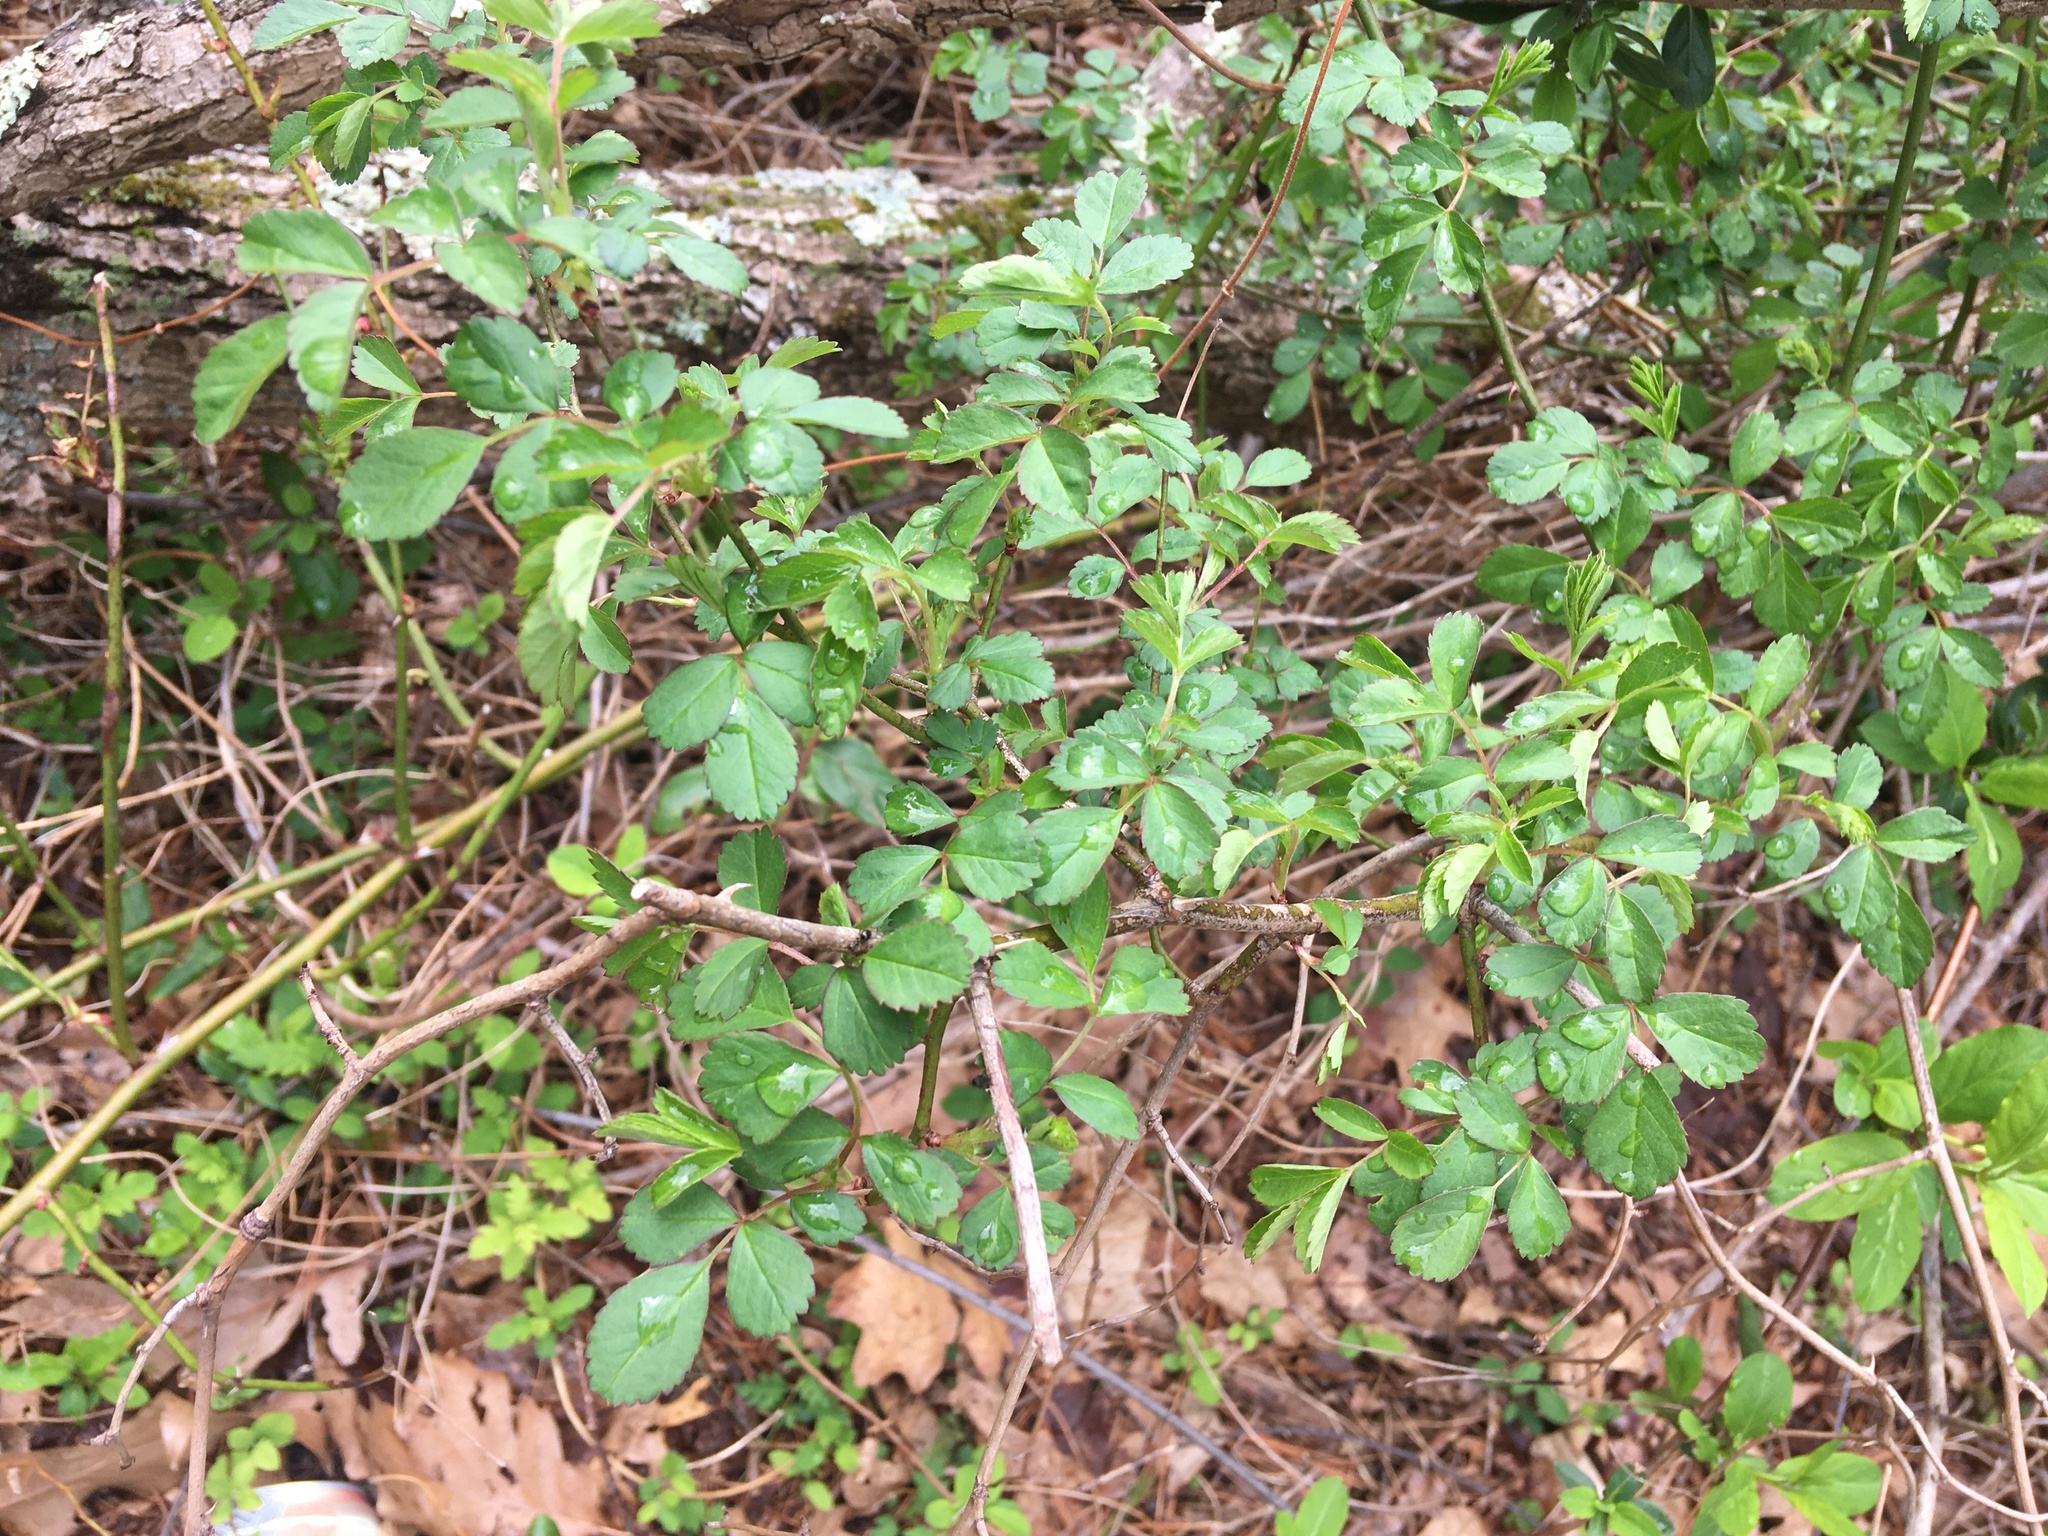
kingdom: Plantae
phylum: Tracheophyta
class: Magnoliopsida
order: Rosales
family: Rosaceae
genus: Rosa
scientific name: Rosa multiflora
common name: Multiflora rose
